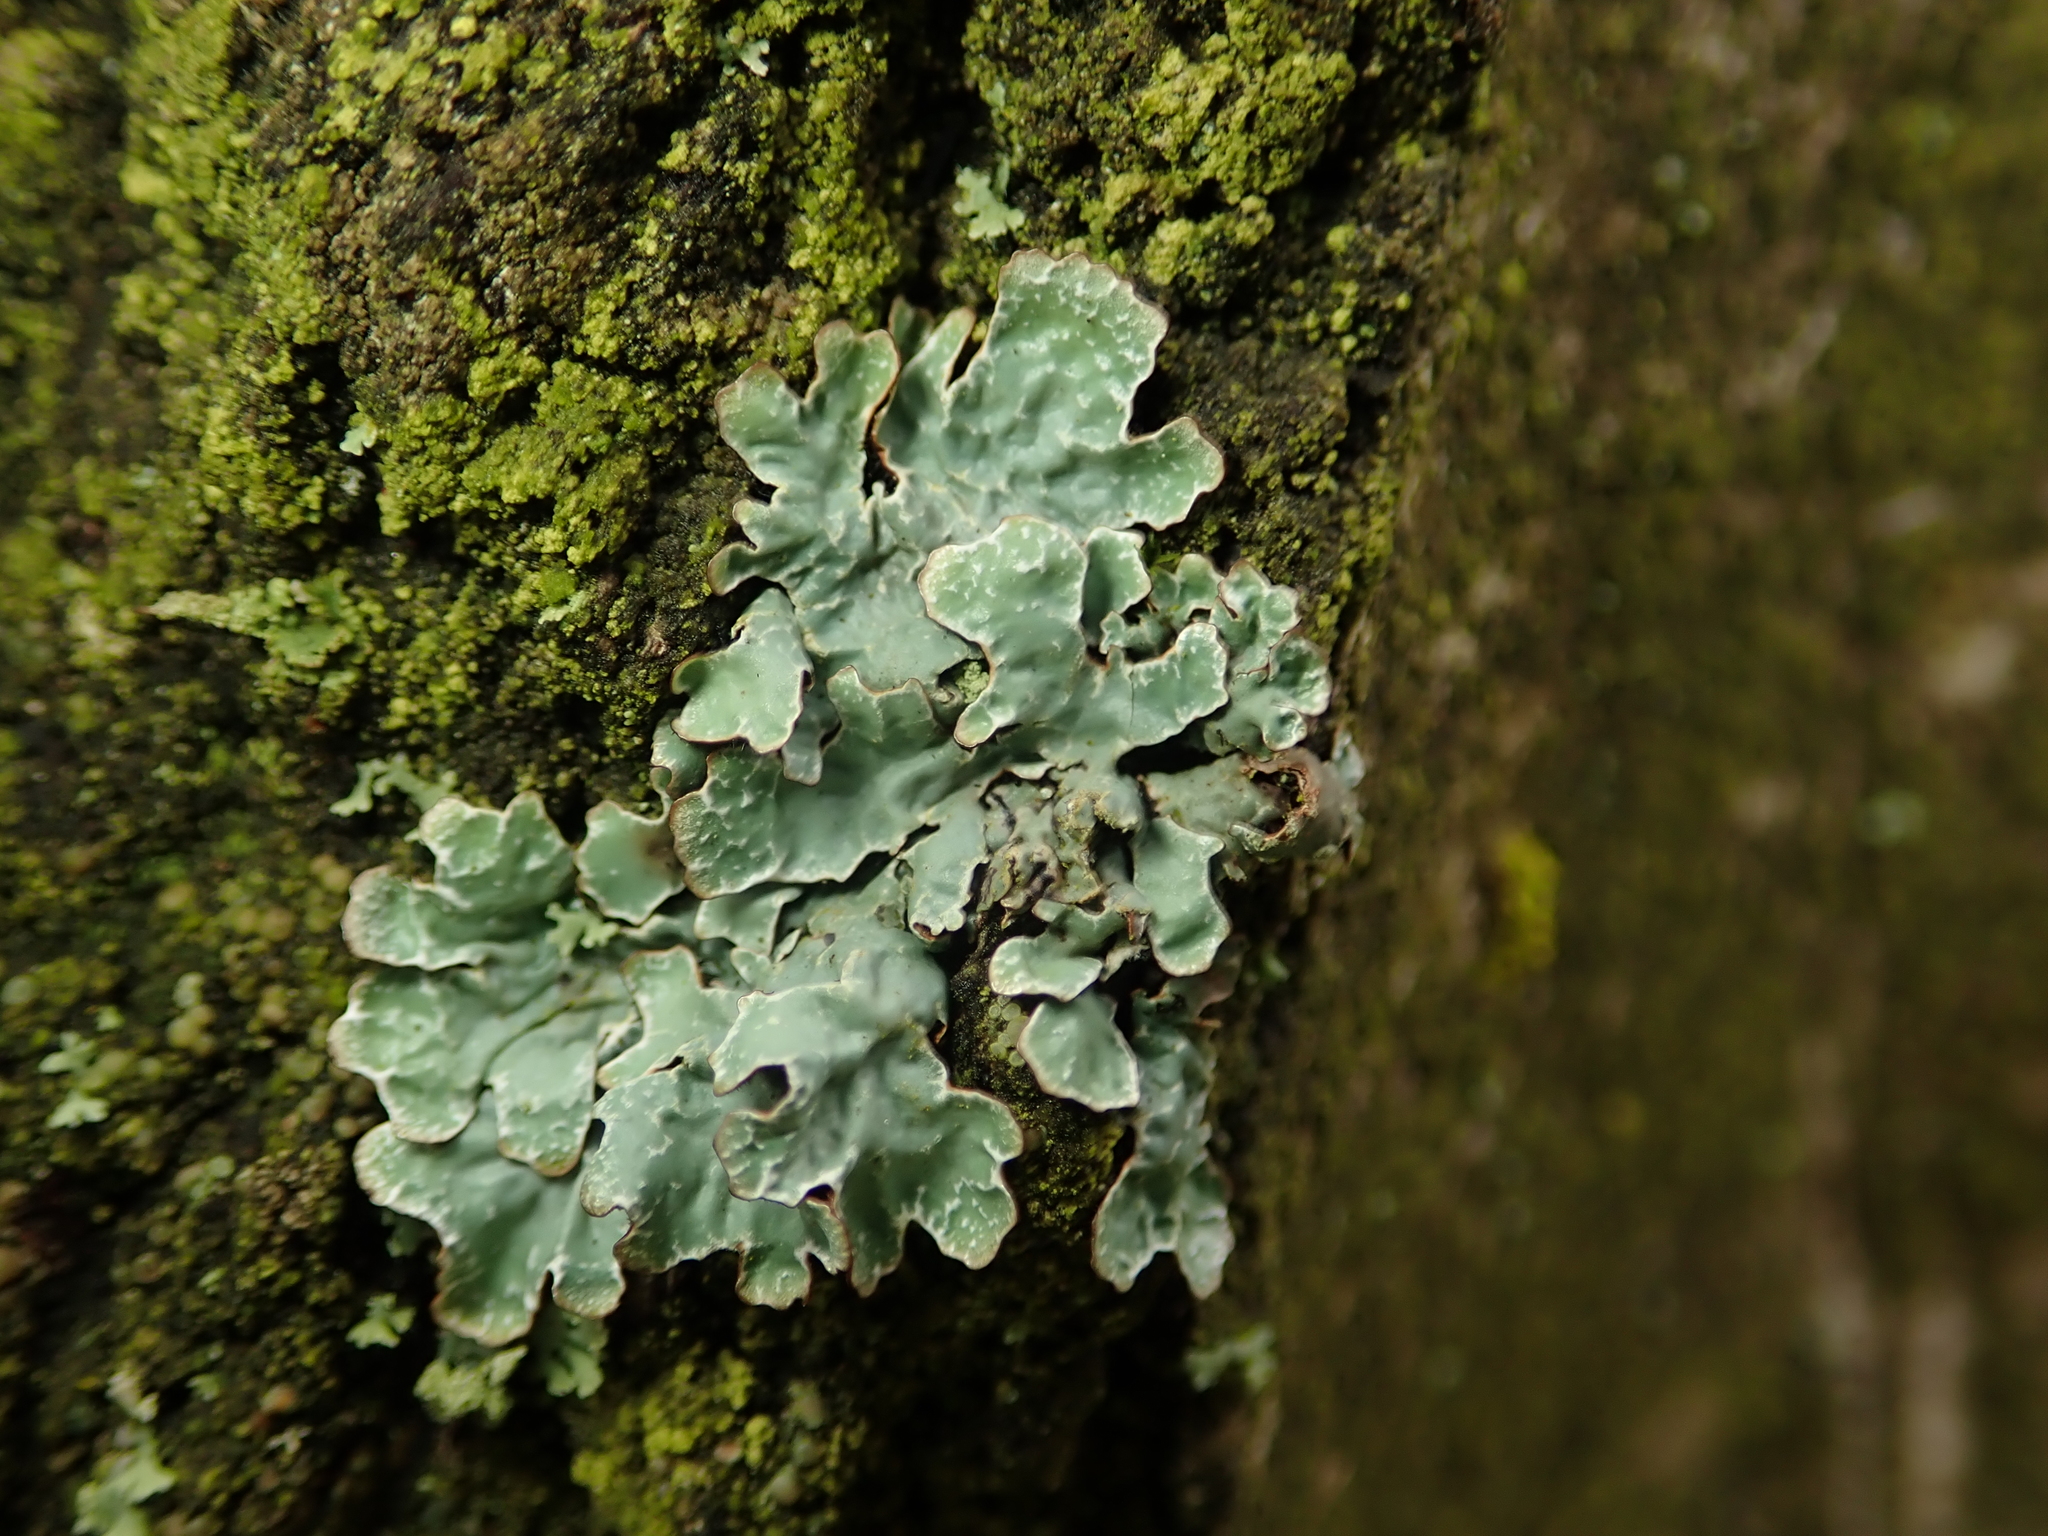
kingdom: Fungi
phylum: Ascomycota
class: Lecanoromycetes
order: Lecanorales
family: Parmeliaceae
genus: Parmelia
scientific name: Parmelia sulcata
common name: Netted shield lichen
